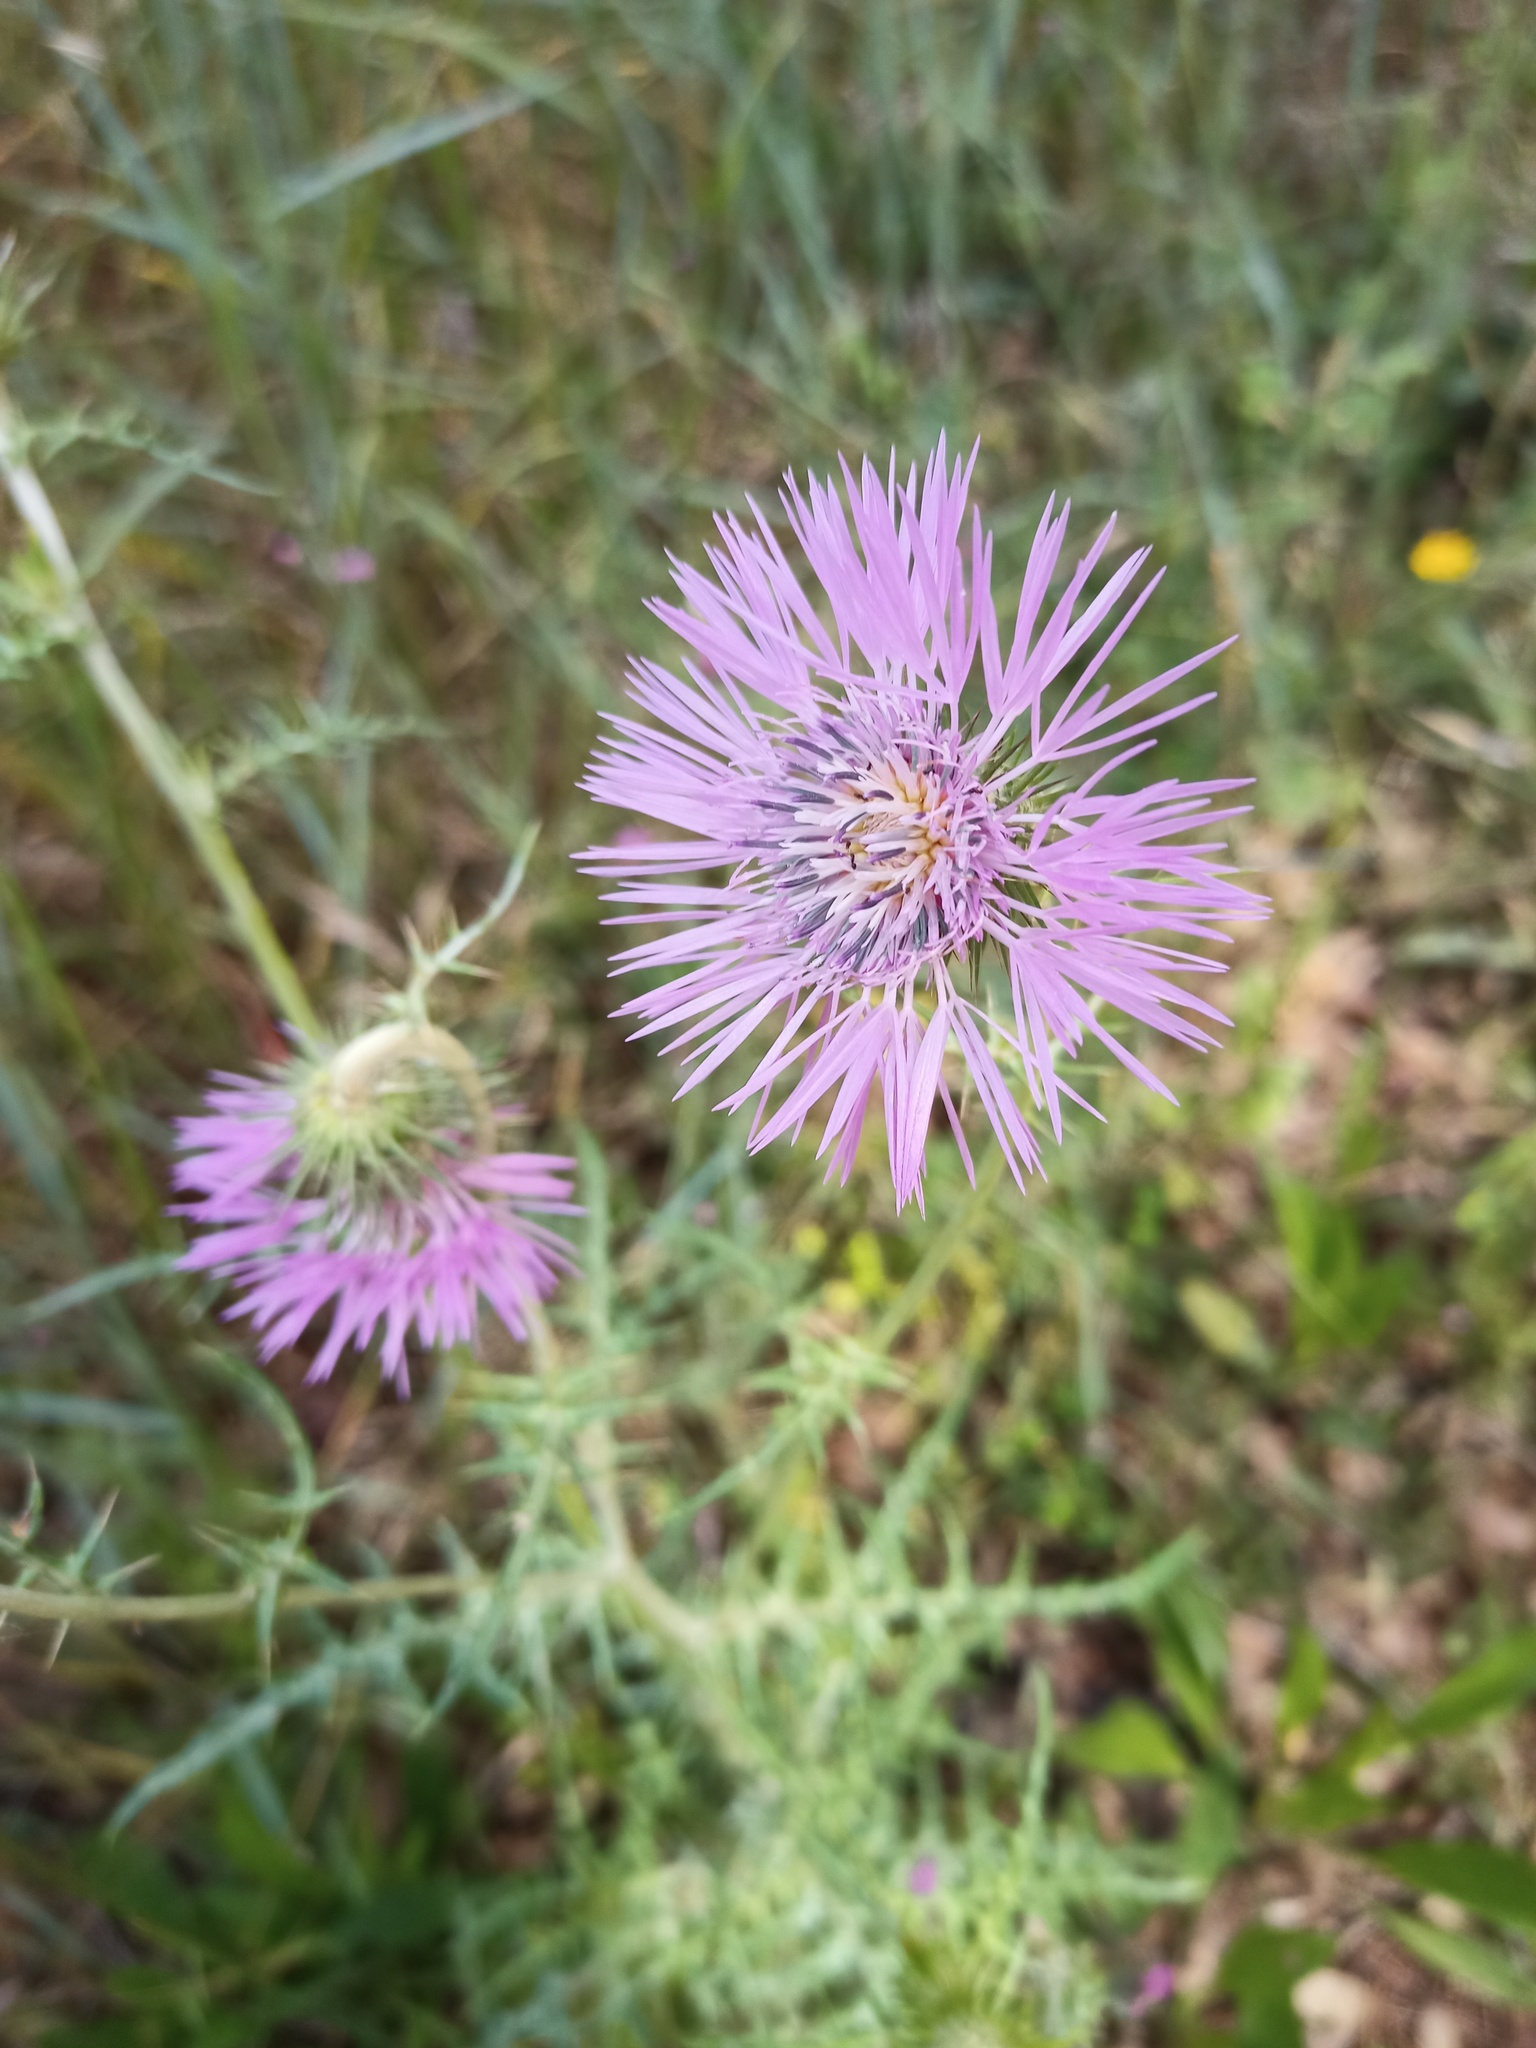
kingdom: Plantae
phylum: Tracheophyta
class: Magnoliopsida
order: Asterales
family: Asteraceae
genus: Galactites
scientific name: Galactites tomentosa
